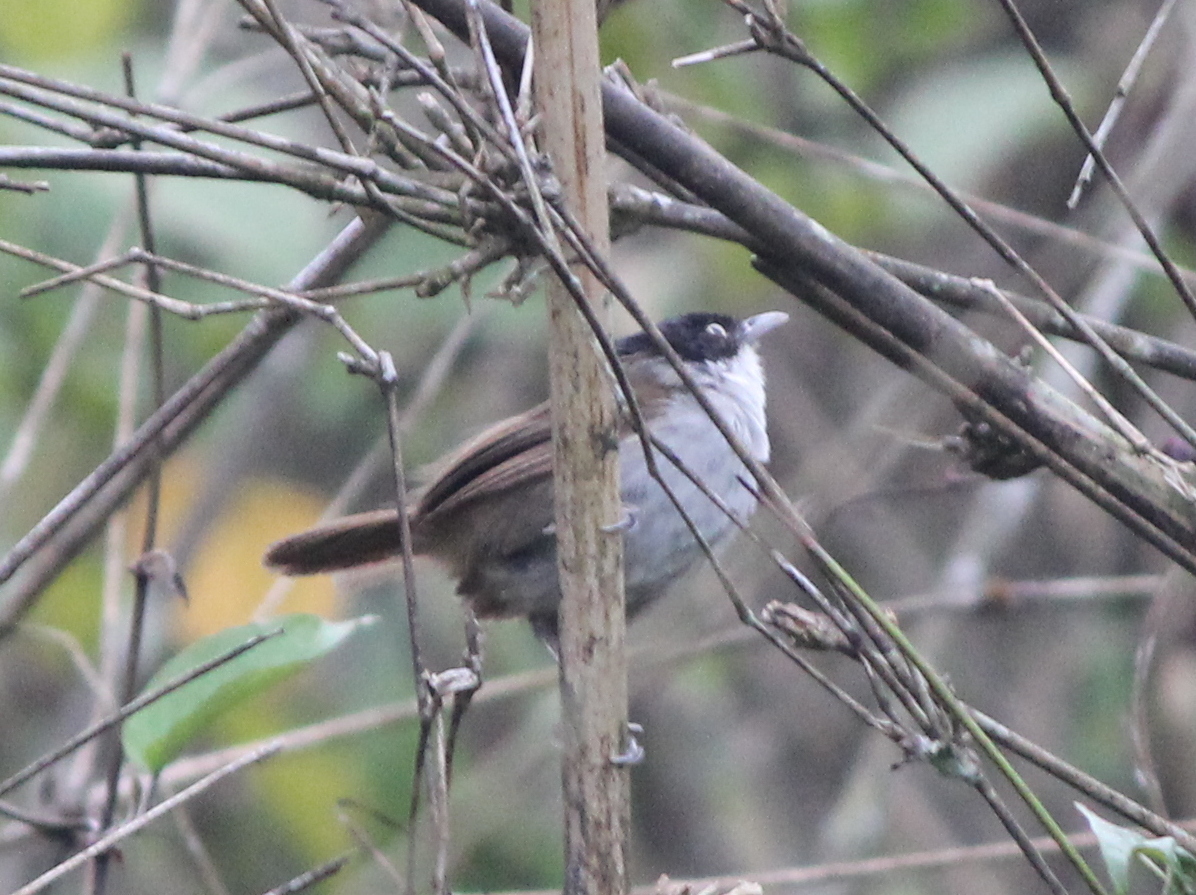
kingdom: Animalia
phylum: Chordata
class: Aves
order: Passeriformes
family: Timaliidae
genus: Rhopocichla
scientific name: Rhopocichla atriceps
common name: Dark-fronted babbler
